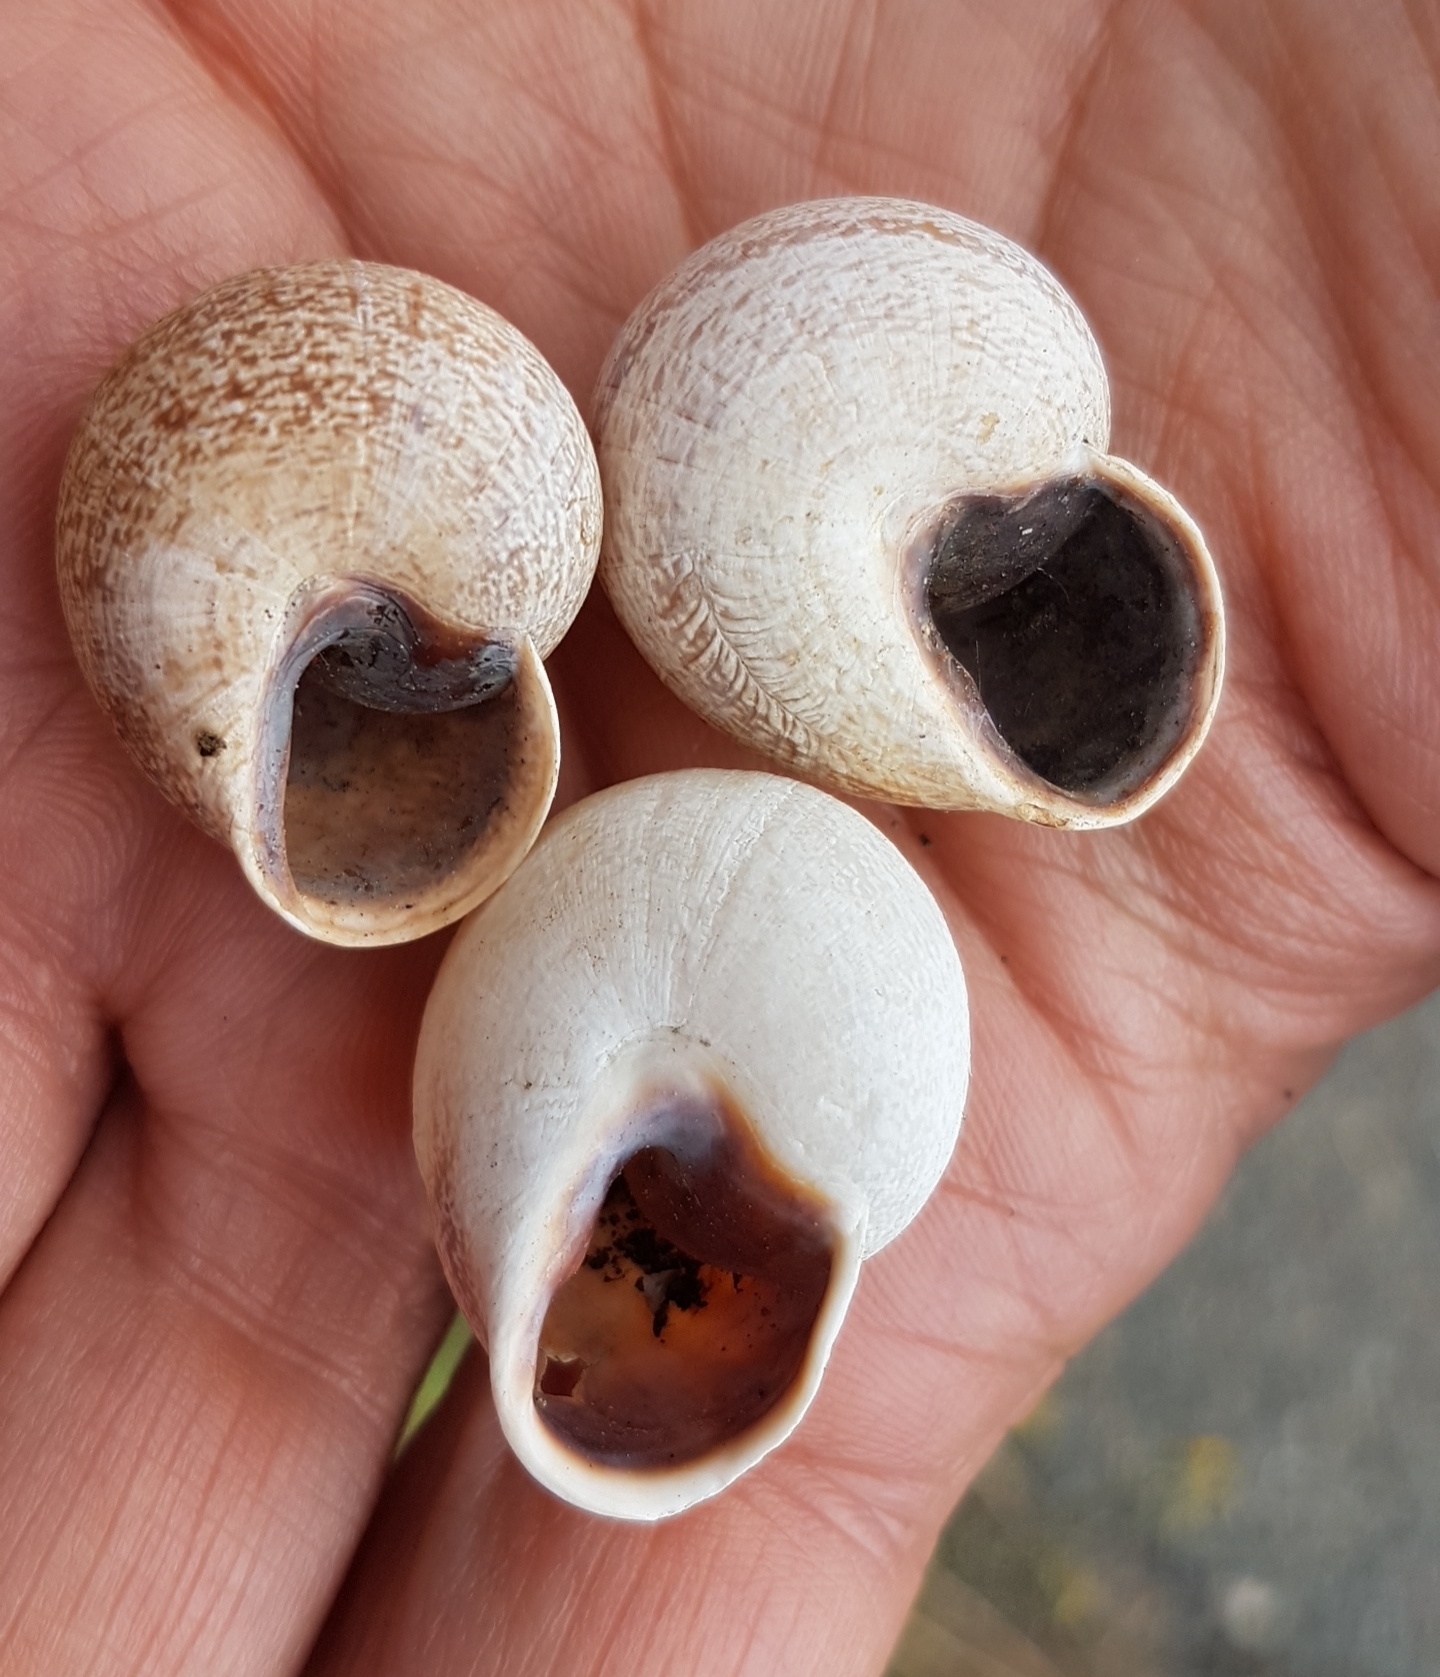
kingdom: Animalia
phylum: Mollusca
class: Gastropoda
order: Stylommatophora
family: Helicidae
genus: Otala
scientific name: Otala punctata
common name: Milk snail
